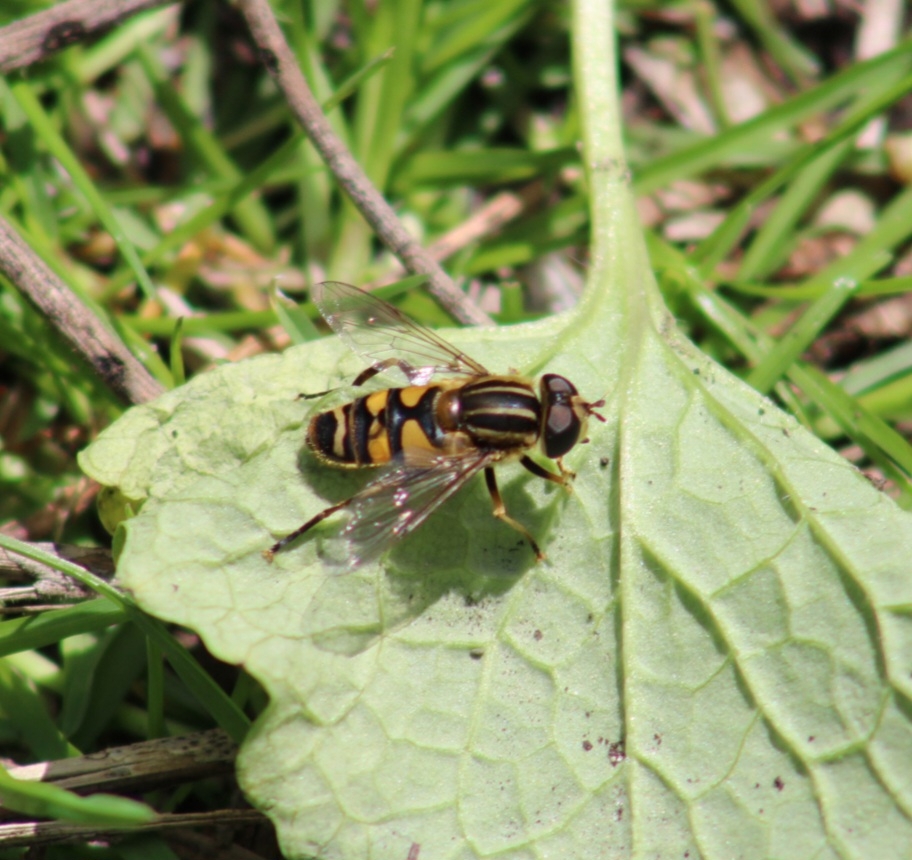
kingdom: Animalia
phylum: Arthropoda
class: Insecta
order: Diptera
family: Syrphidae
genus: Helophilus
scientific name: Helophilus fasciatus
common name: Narrow-headed marsh fly
